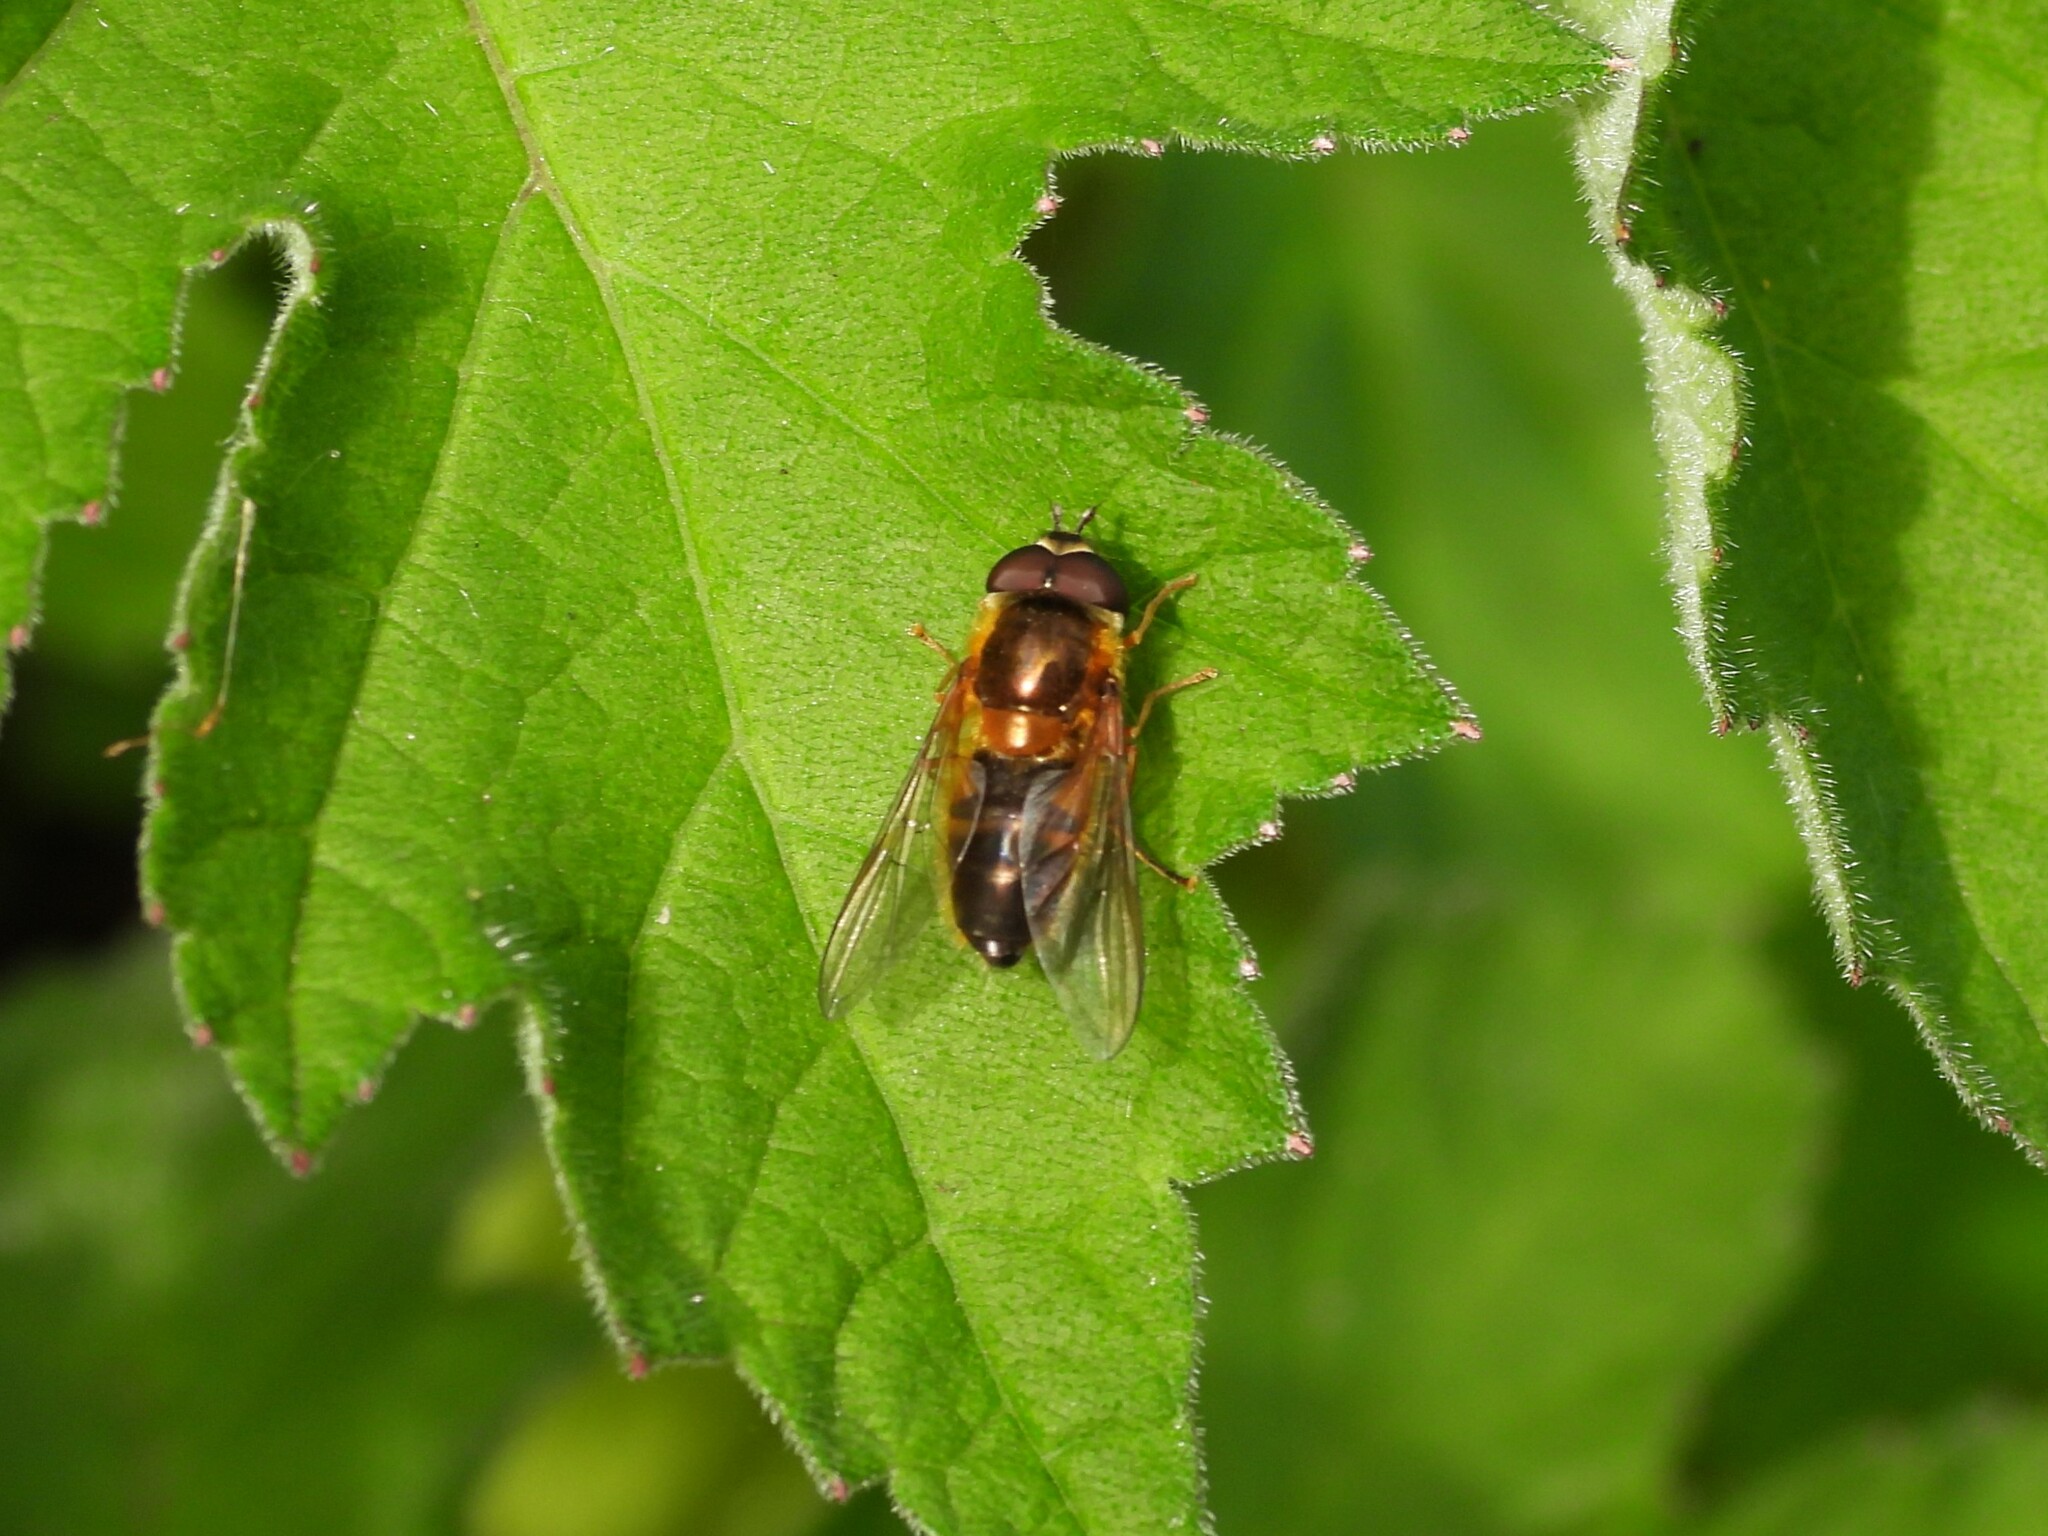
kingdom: Animalia
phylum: Arthropoda
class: Insecta
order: Diptera
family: Syrphidae
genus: Epistrophe
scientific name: Epistrophe eligans
